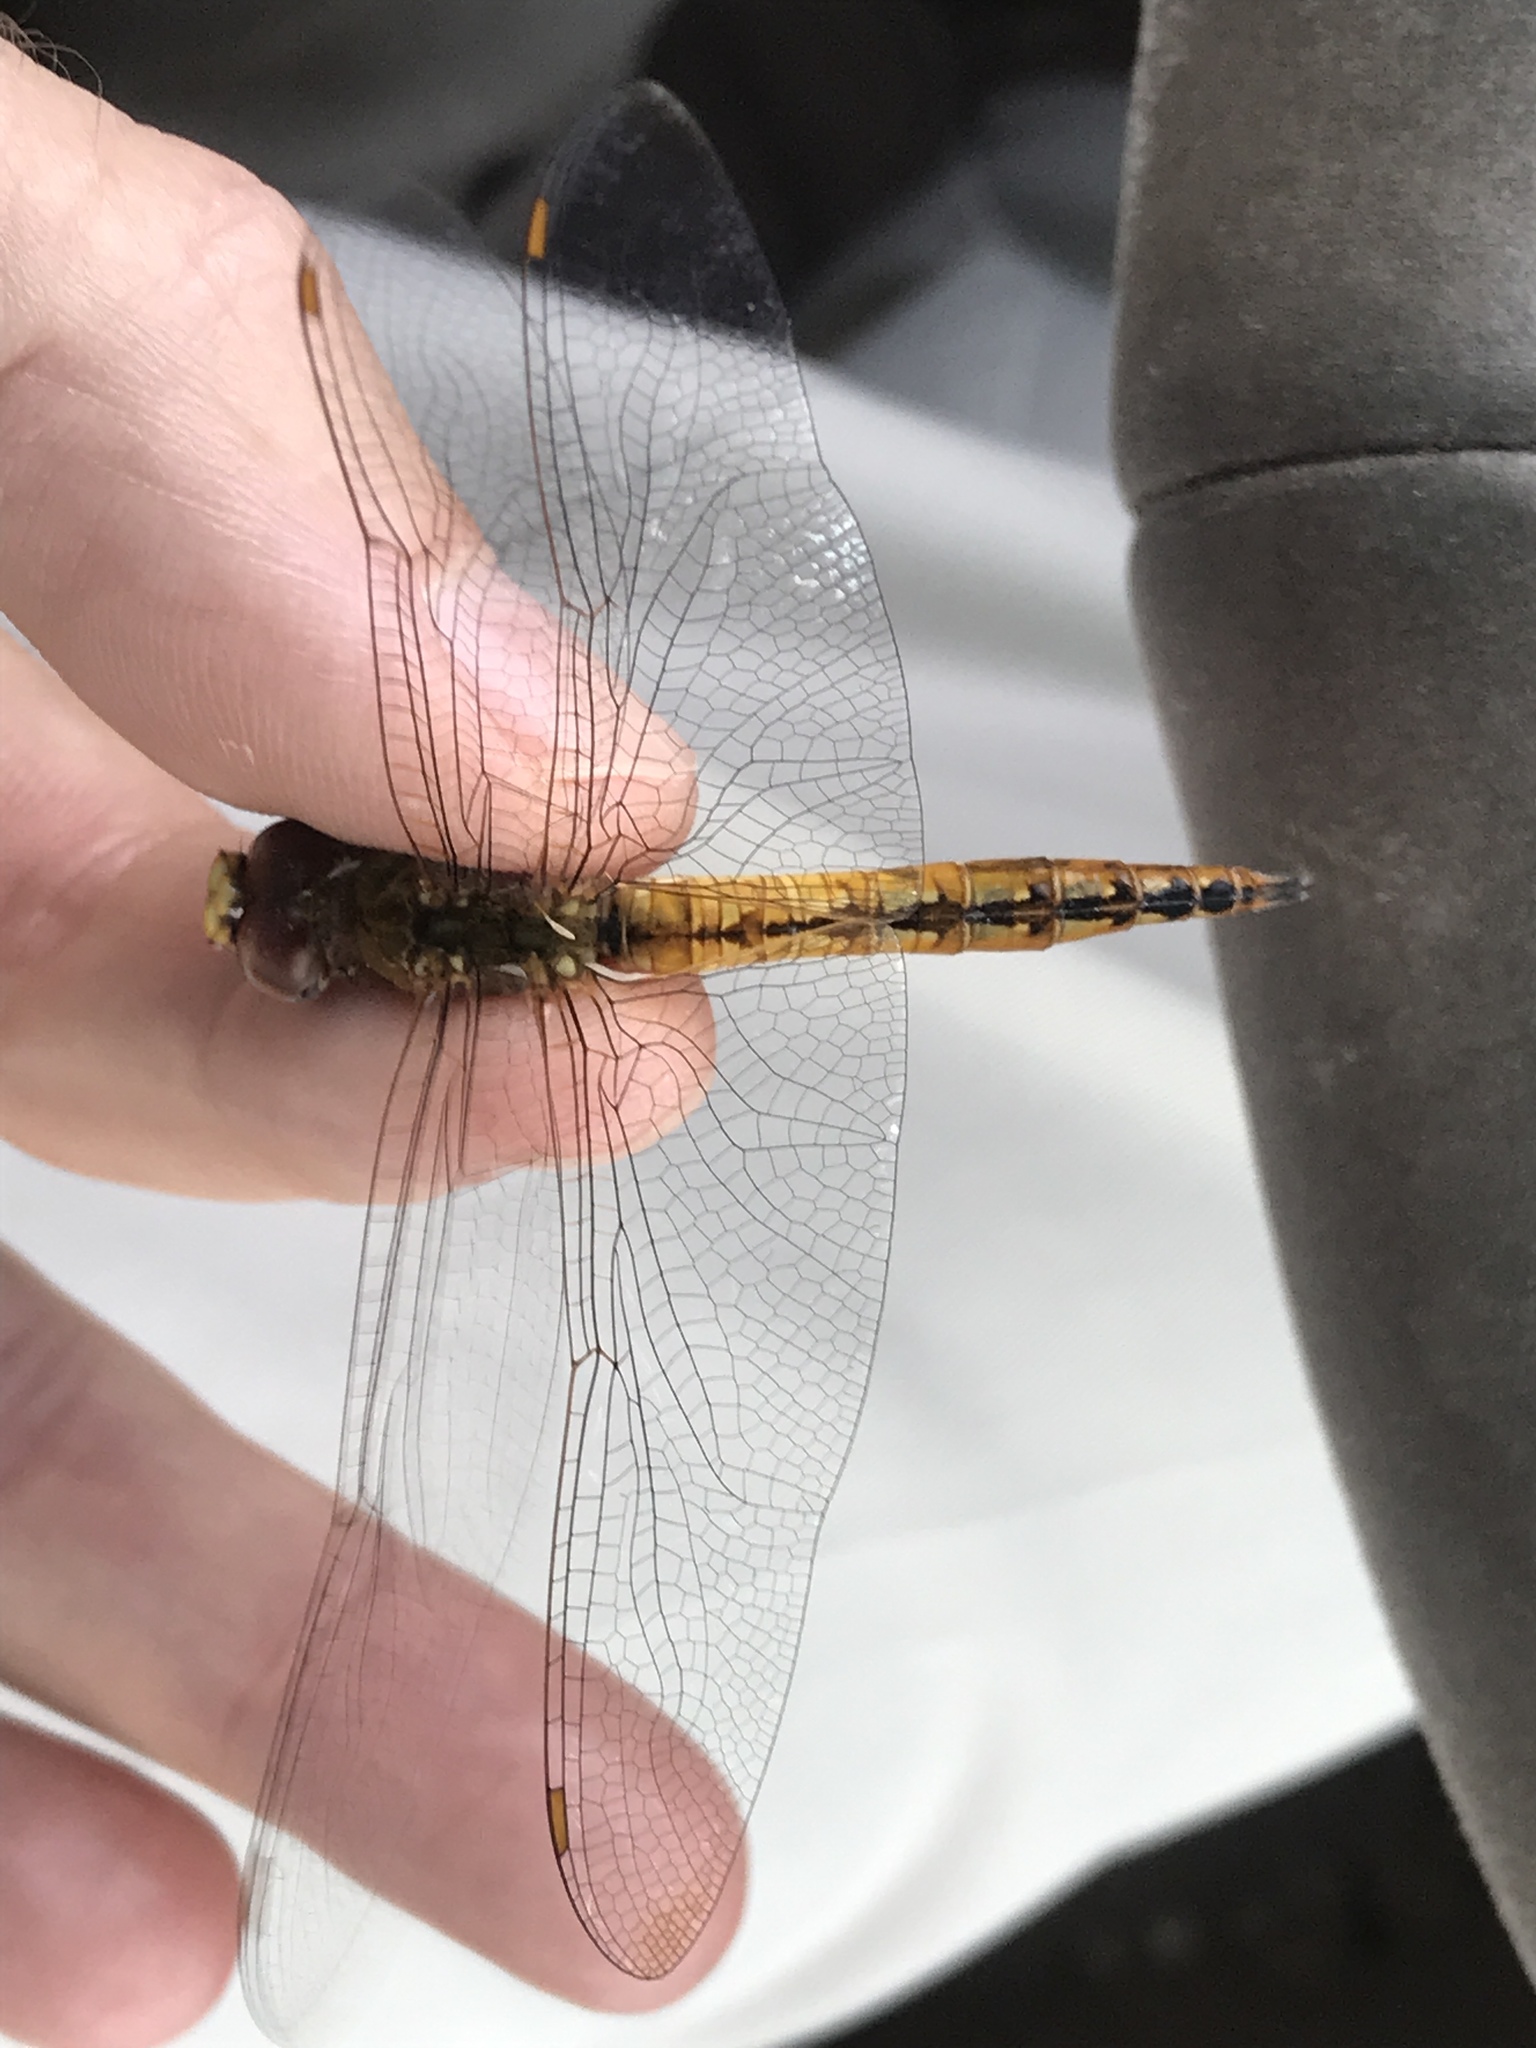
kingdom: Animalia
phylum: Arthropoda
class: Insecta
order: Odonata
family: Libellulidae
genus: Pantala
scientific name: Pantala flavescens
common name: Wandering glider
